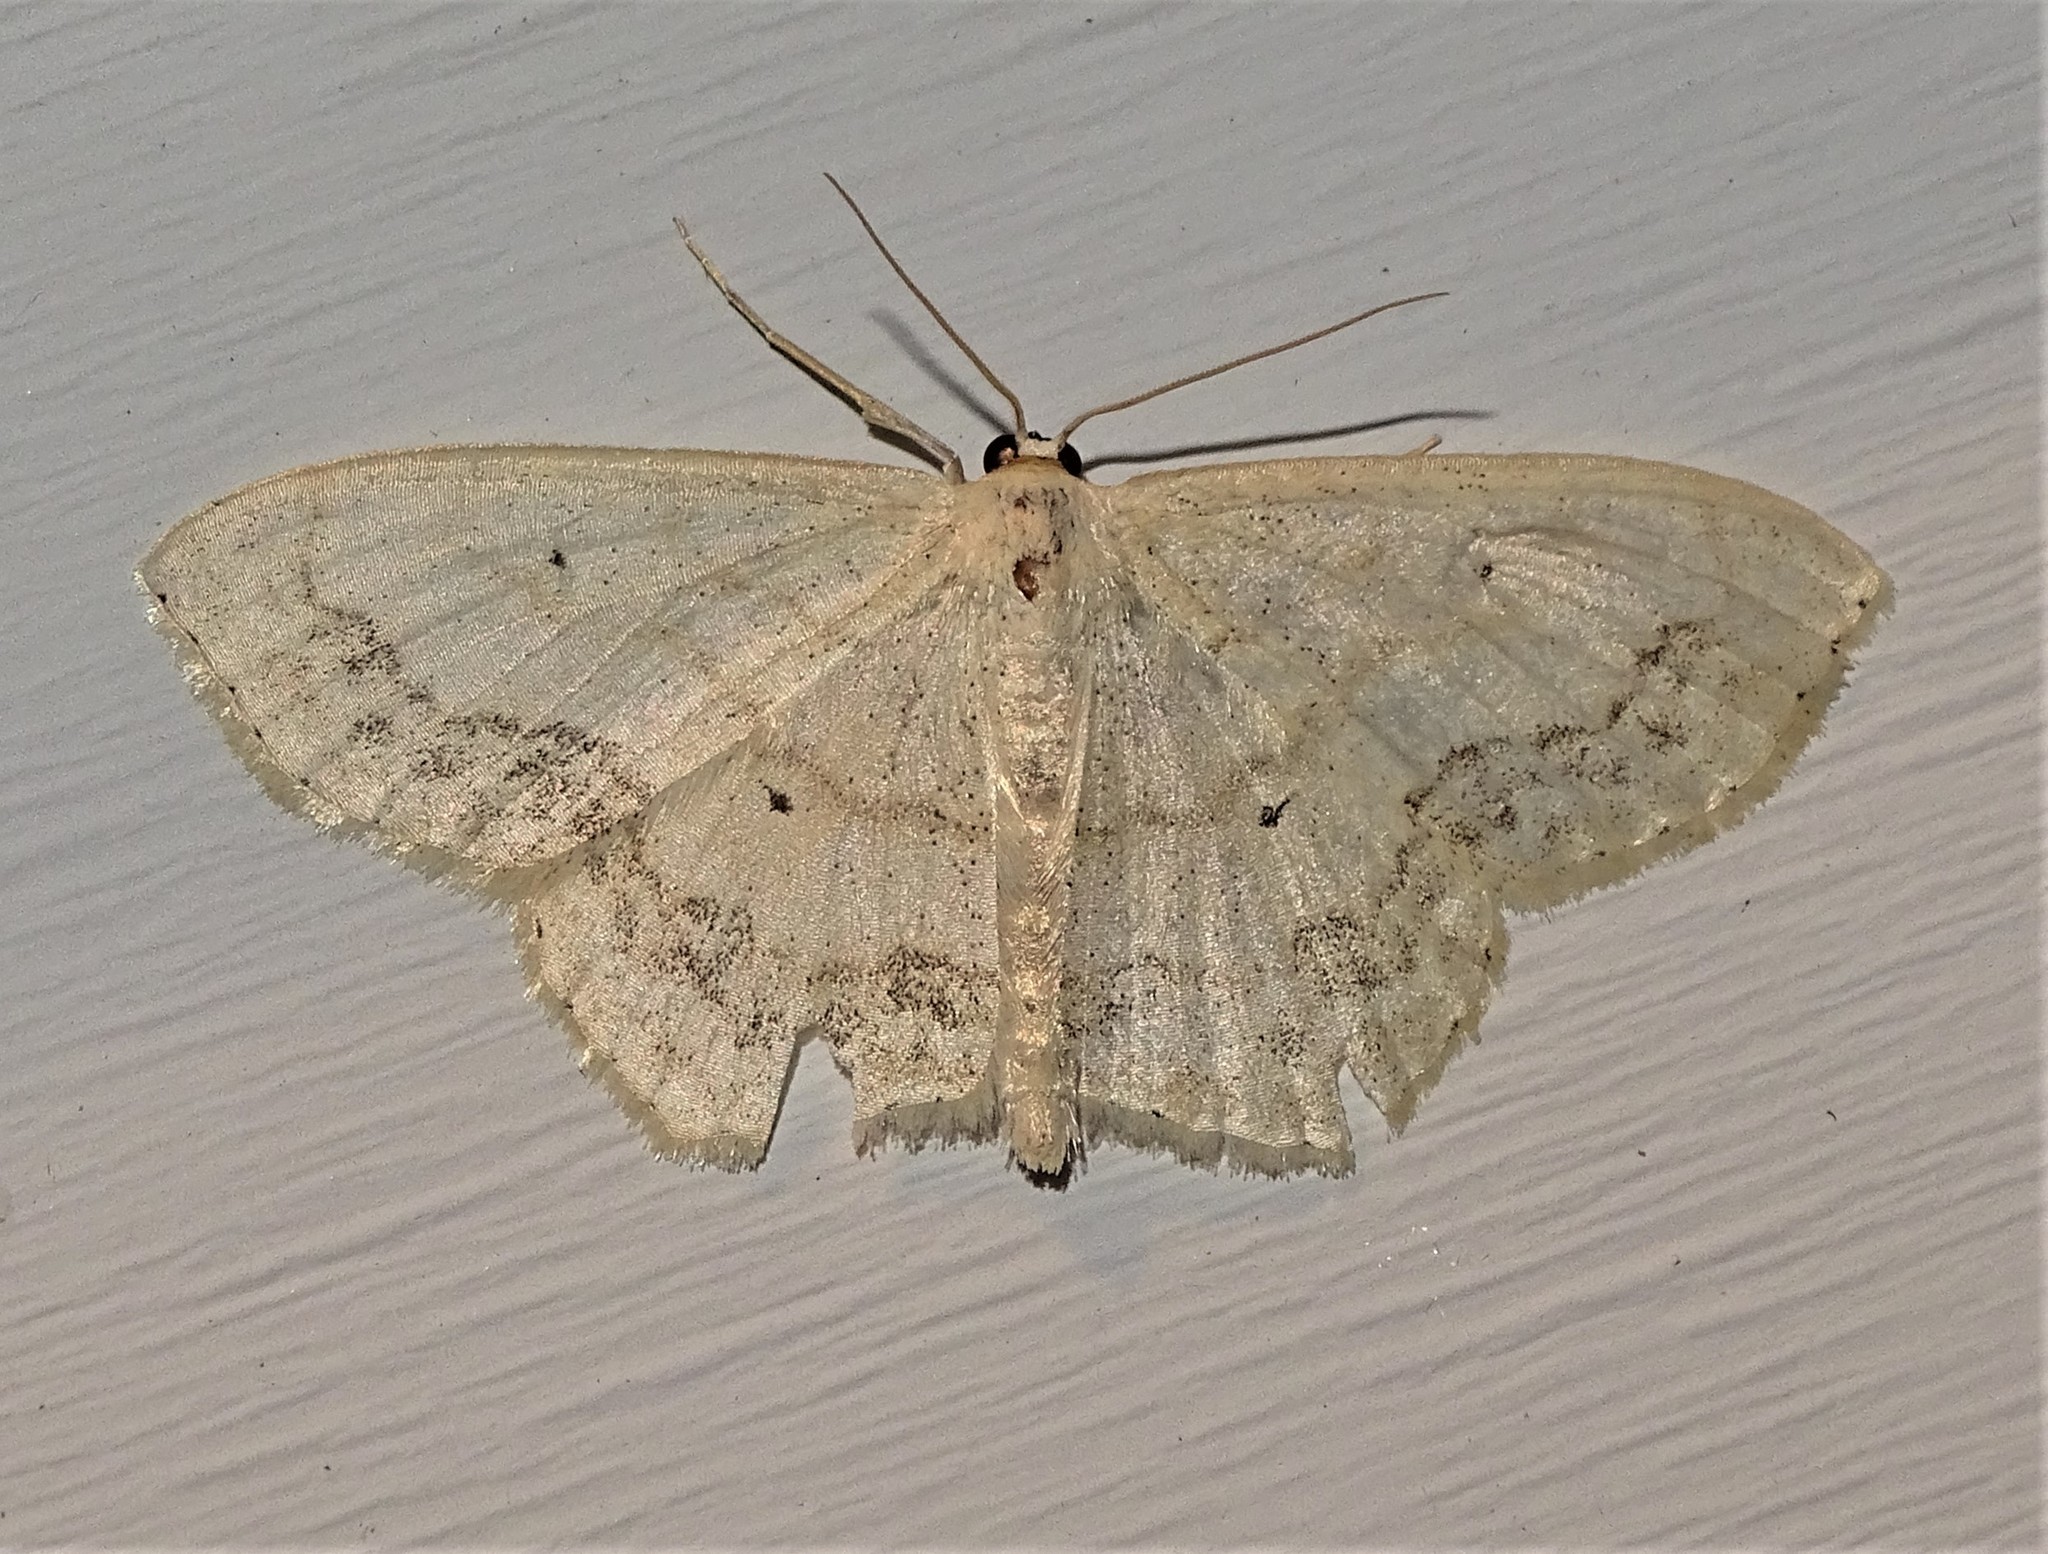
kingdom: Animalia
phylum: Arthropoda
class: Insecta
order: Lepidoptera
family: Geometridae
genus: Scopula
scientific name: Scopula limboundata
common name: Large lace border
